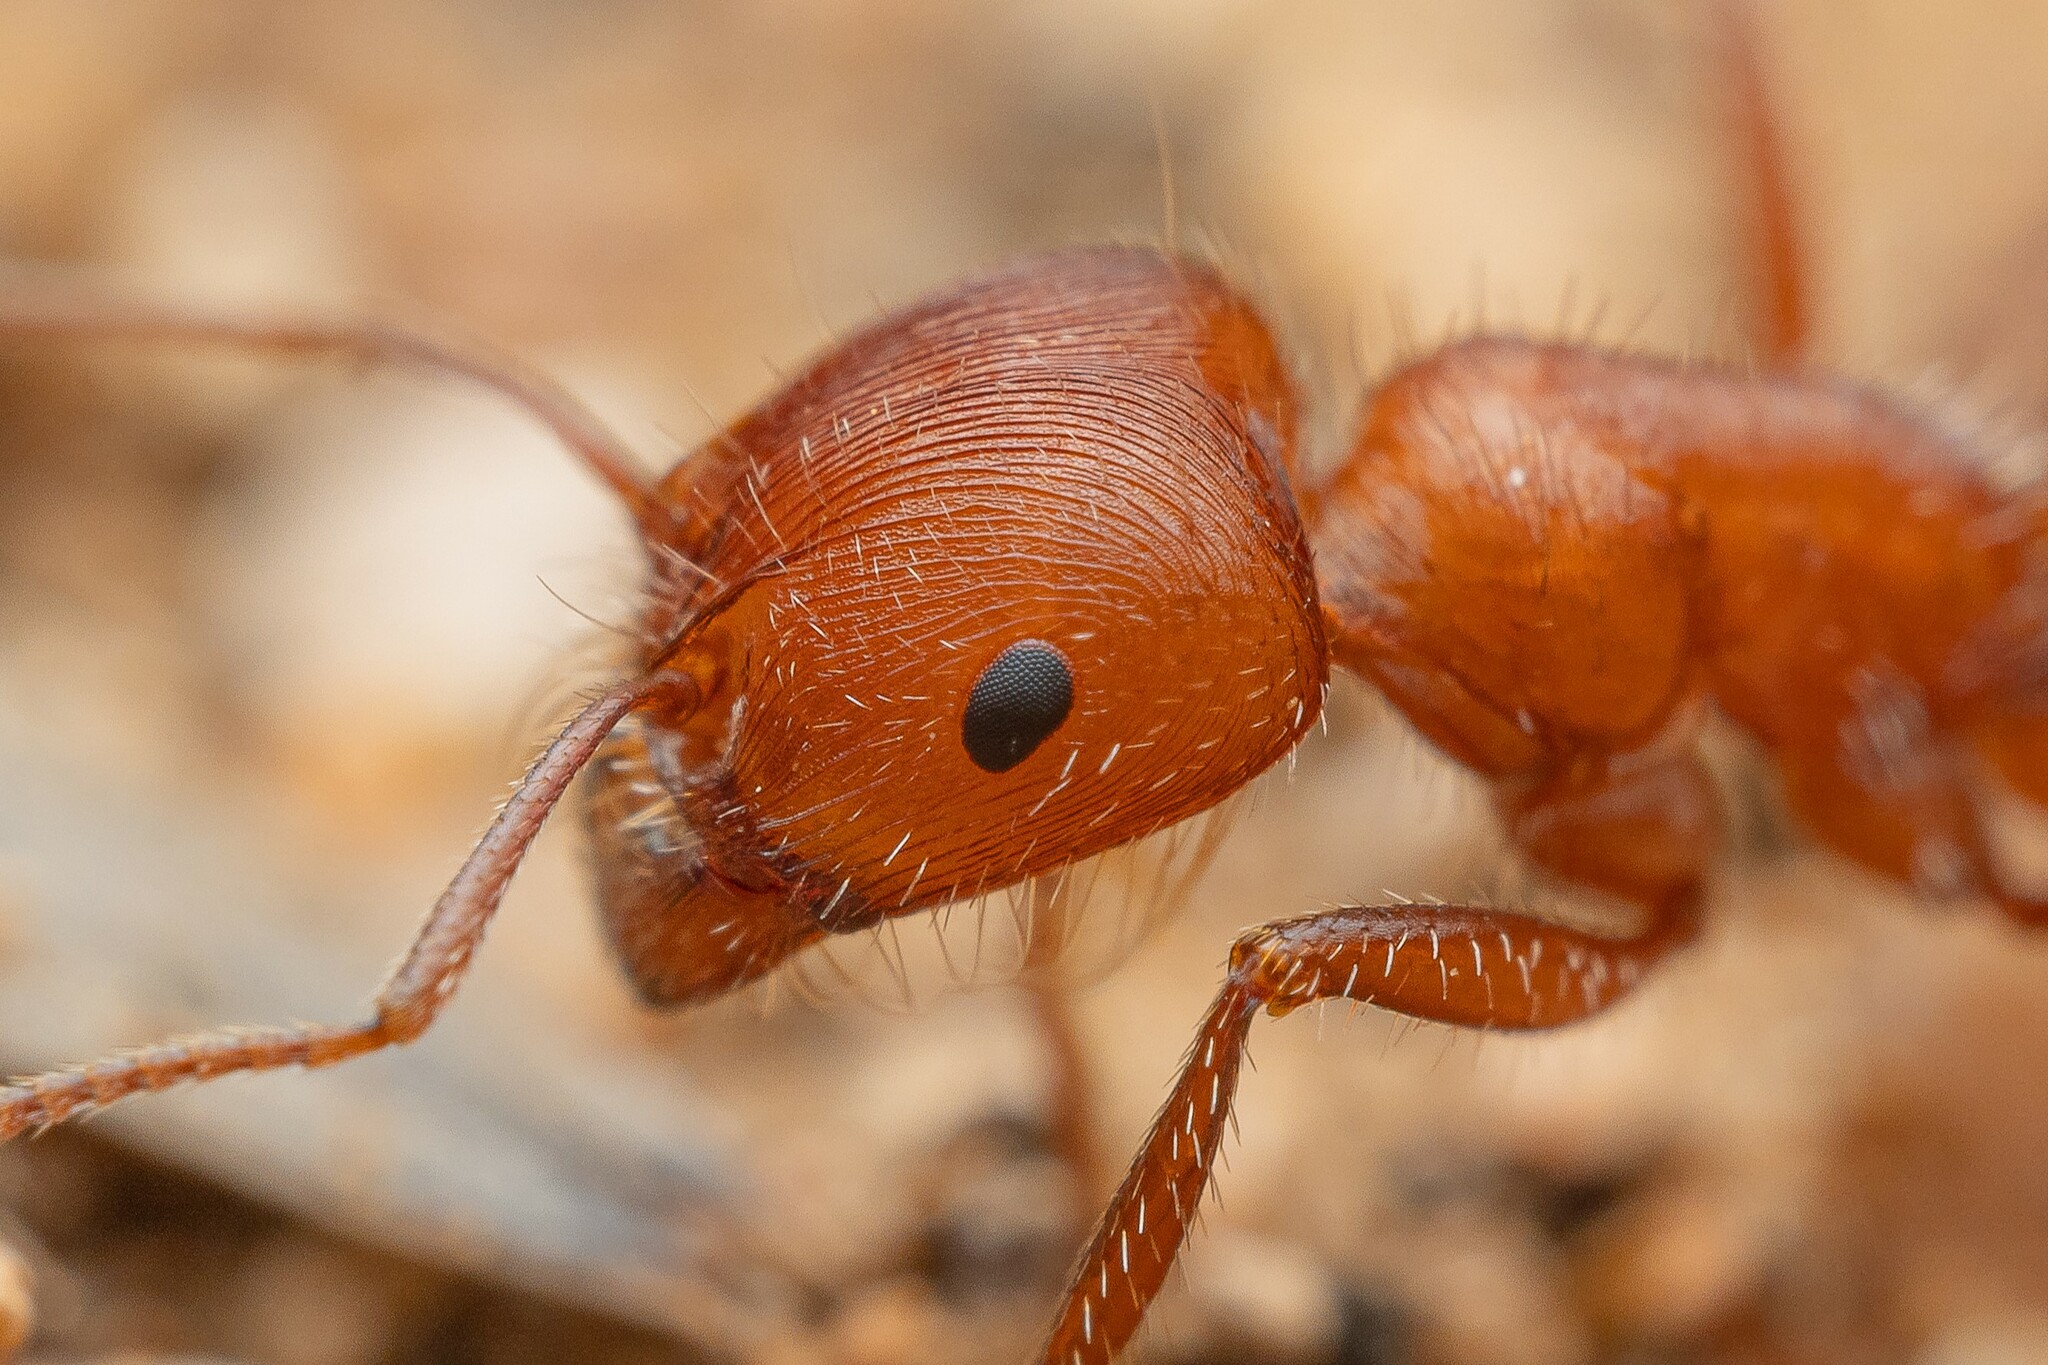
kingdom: Animalia
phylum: Arthropoda
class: Insecta
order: Hymenoptera
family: Formicidae
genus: Pogonomyrmex
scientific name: Pogonomyrmex maricopa
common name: Maricopa harvester ant
